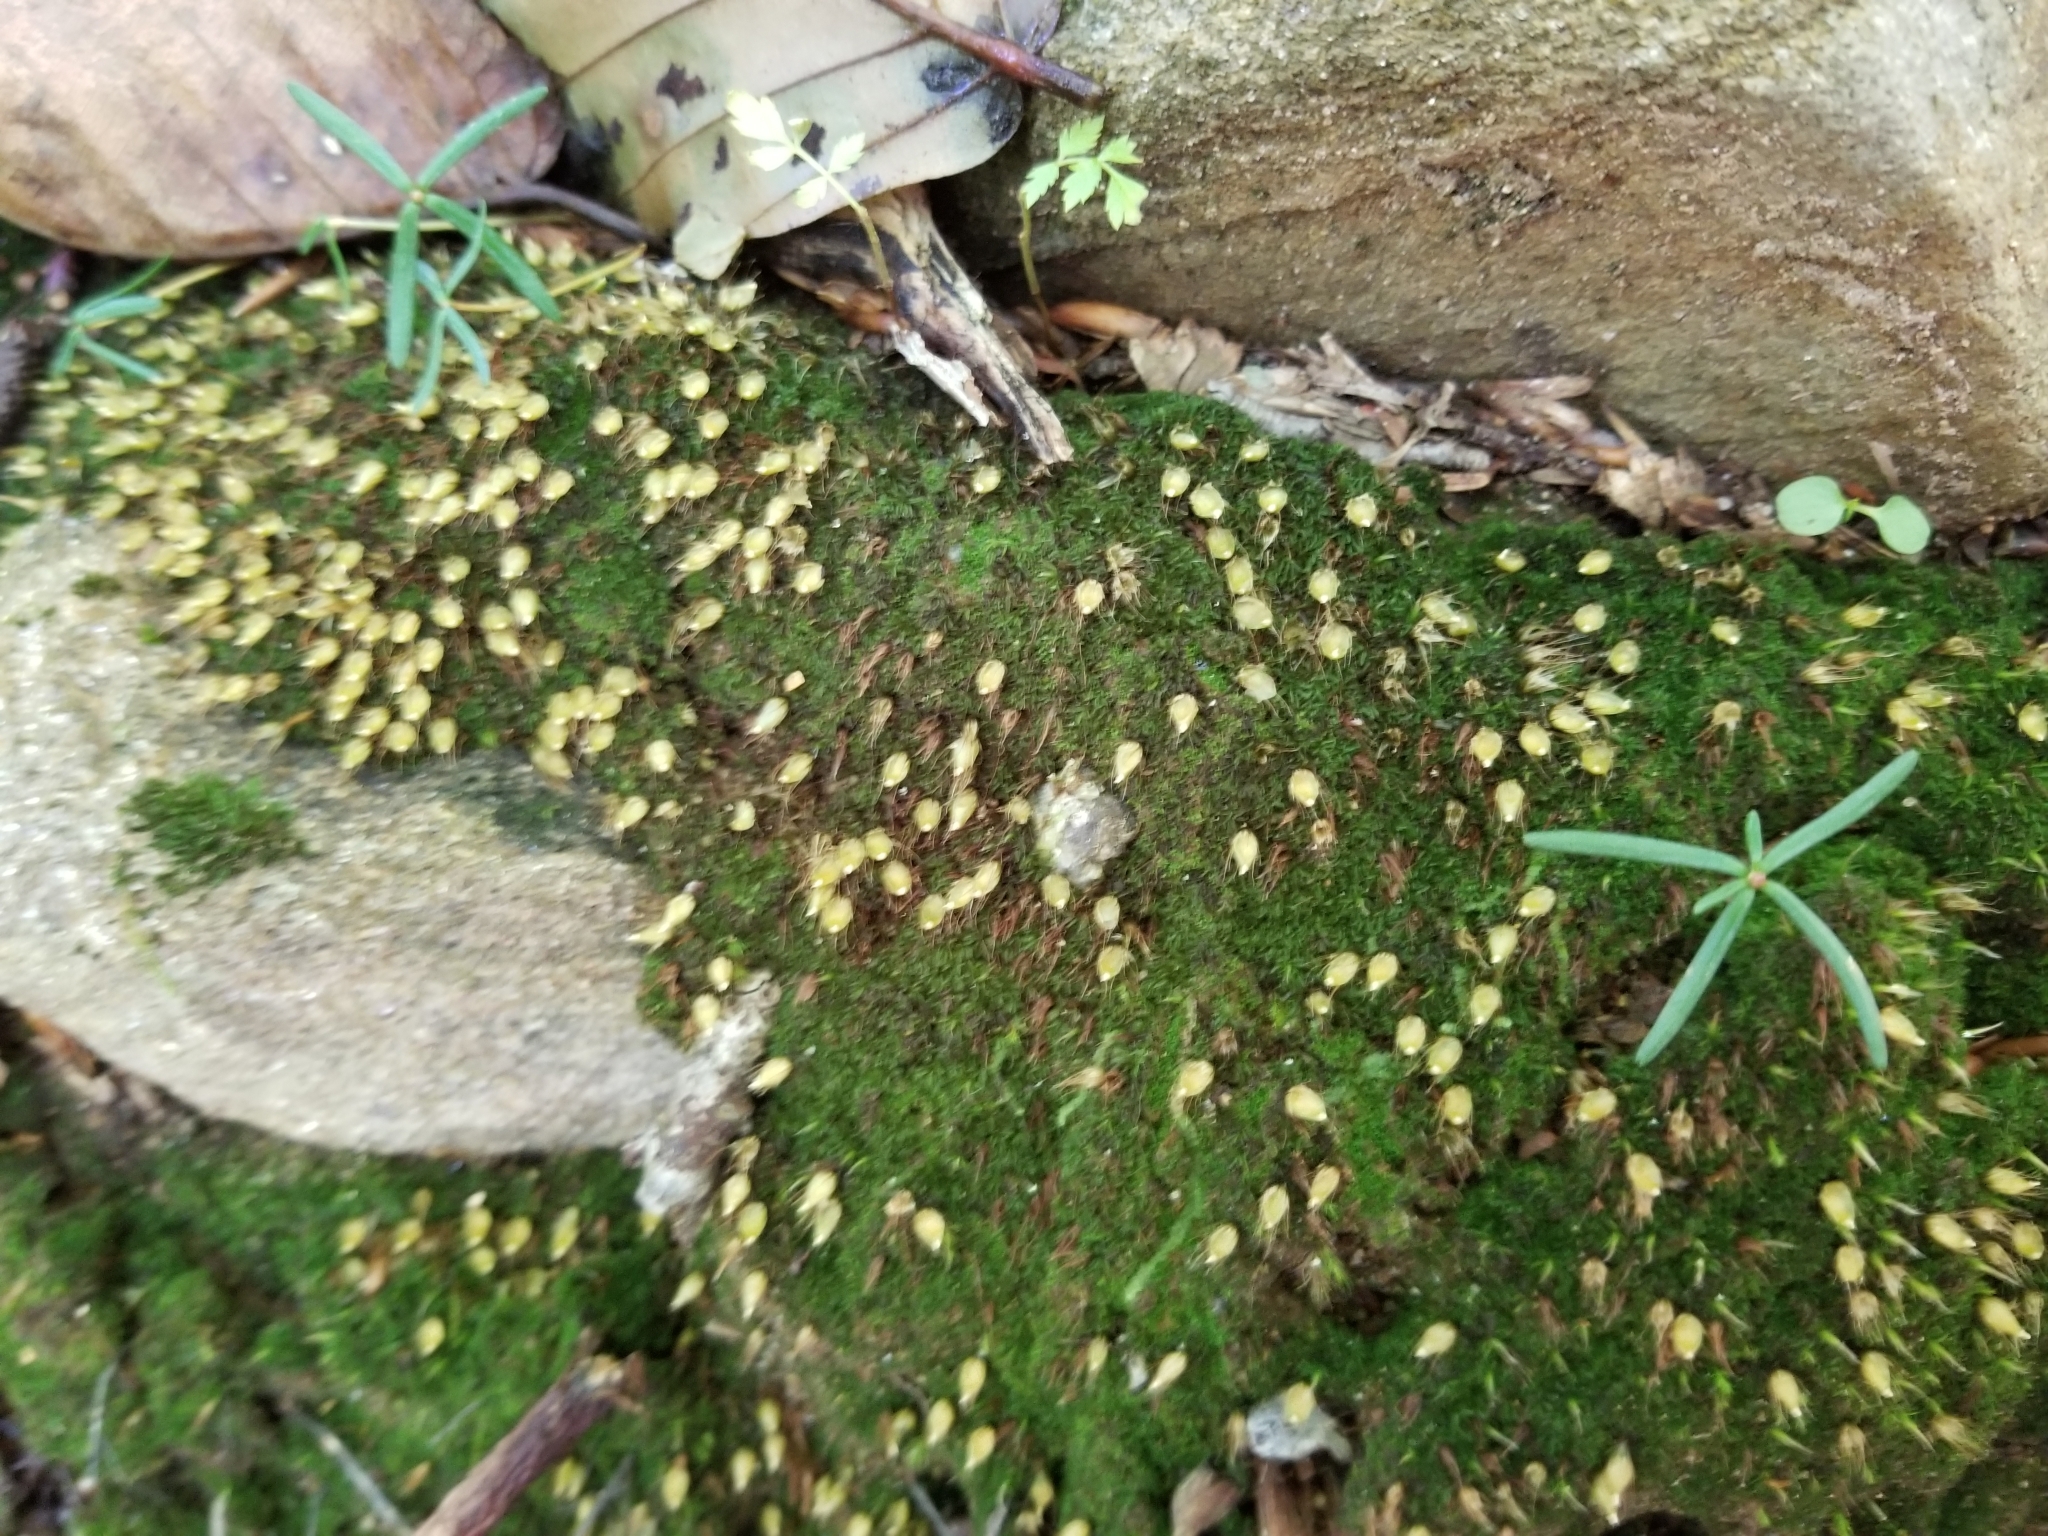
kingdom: Plantae
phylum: Bryophyta
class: Bryopsida
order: Diphysciales
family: Diphysciaceae
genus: Diphyscium
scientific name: Diphyscium foliosum
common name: Nut moss
